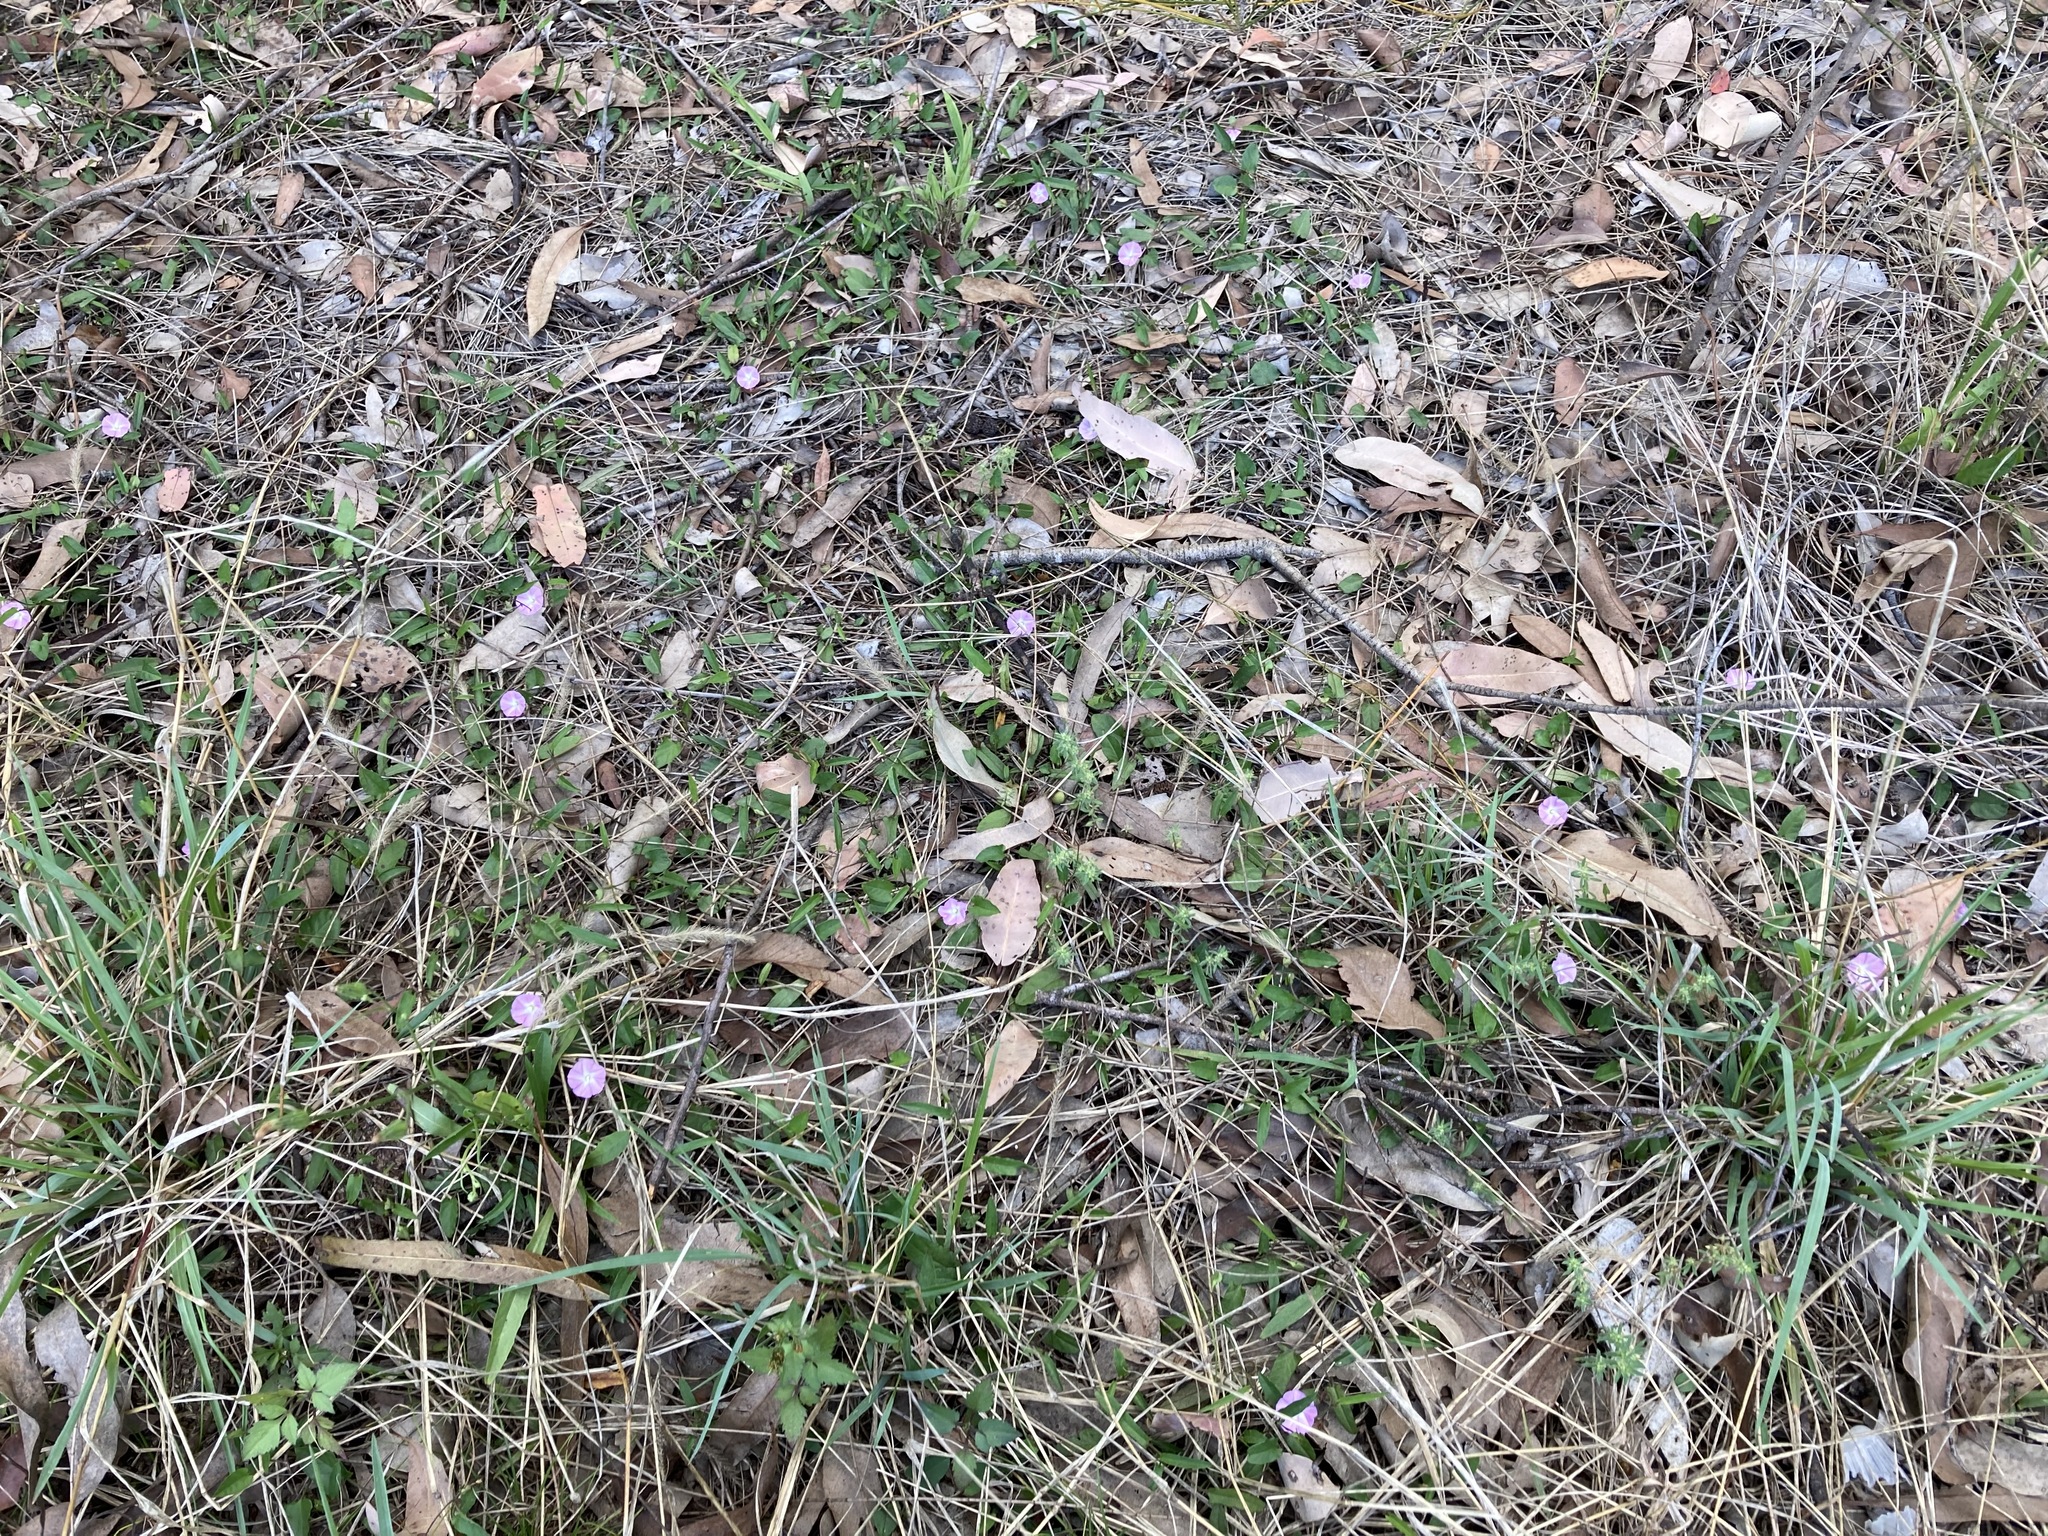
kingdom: Plantae
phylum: Tracheophyta
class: Magnoliopsida
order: Solanales
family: Convolvulaceae
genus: Polymeria
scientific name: Polymeria calycina
